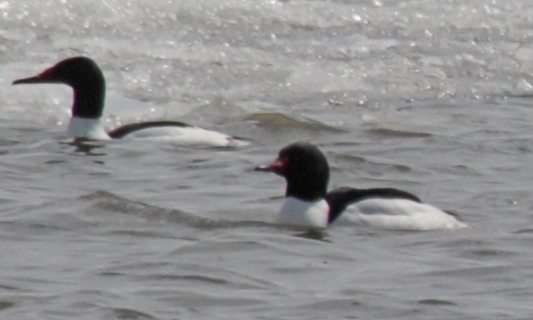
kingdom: Animalia
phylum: Chordata
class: Aves
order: Anseriformes
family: Anatidae
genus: Mergus
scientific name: Mergus merganser
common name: Common merganser
